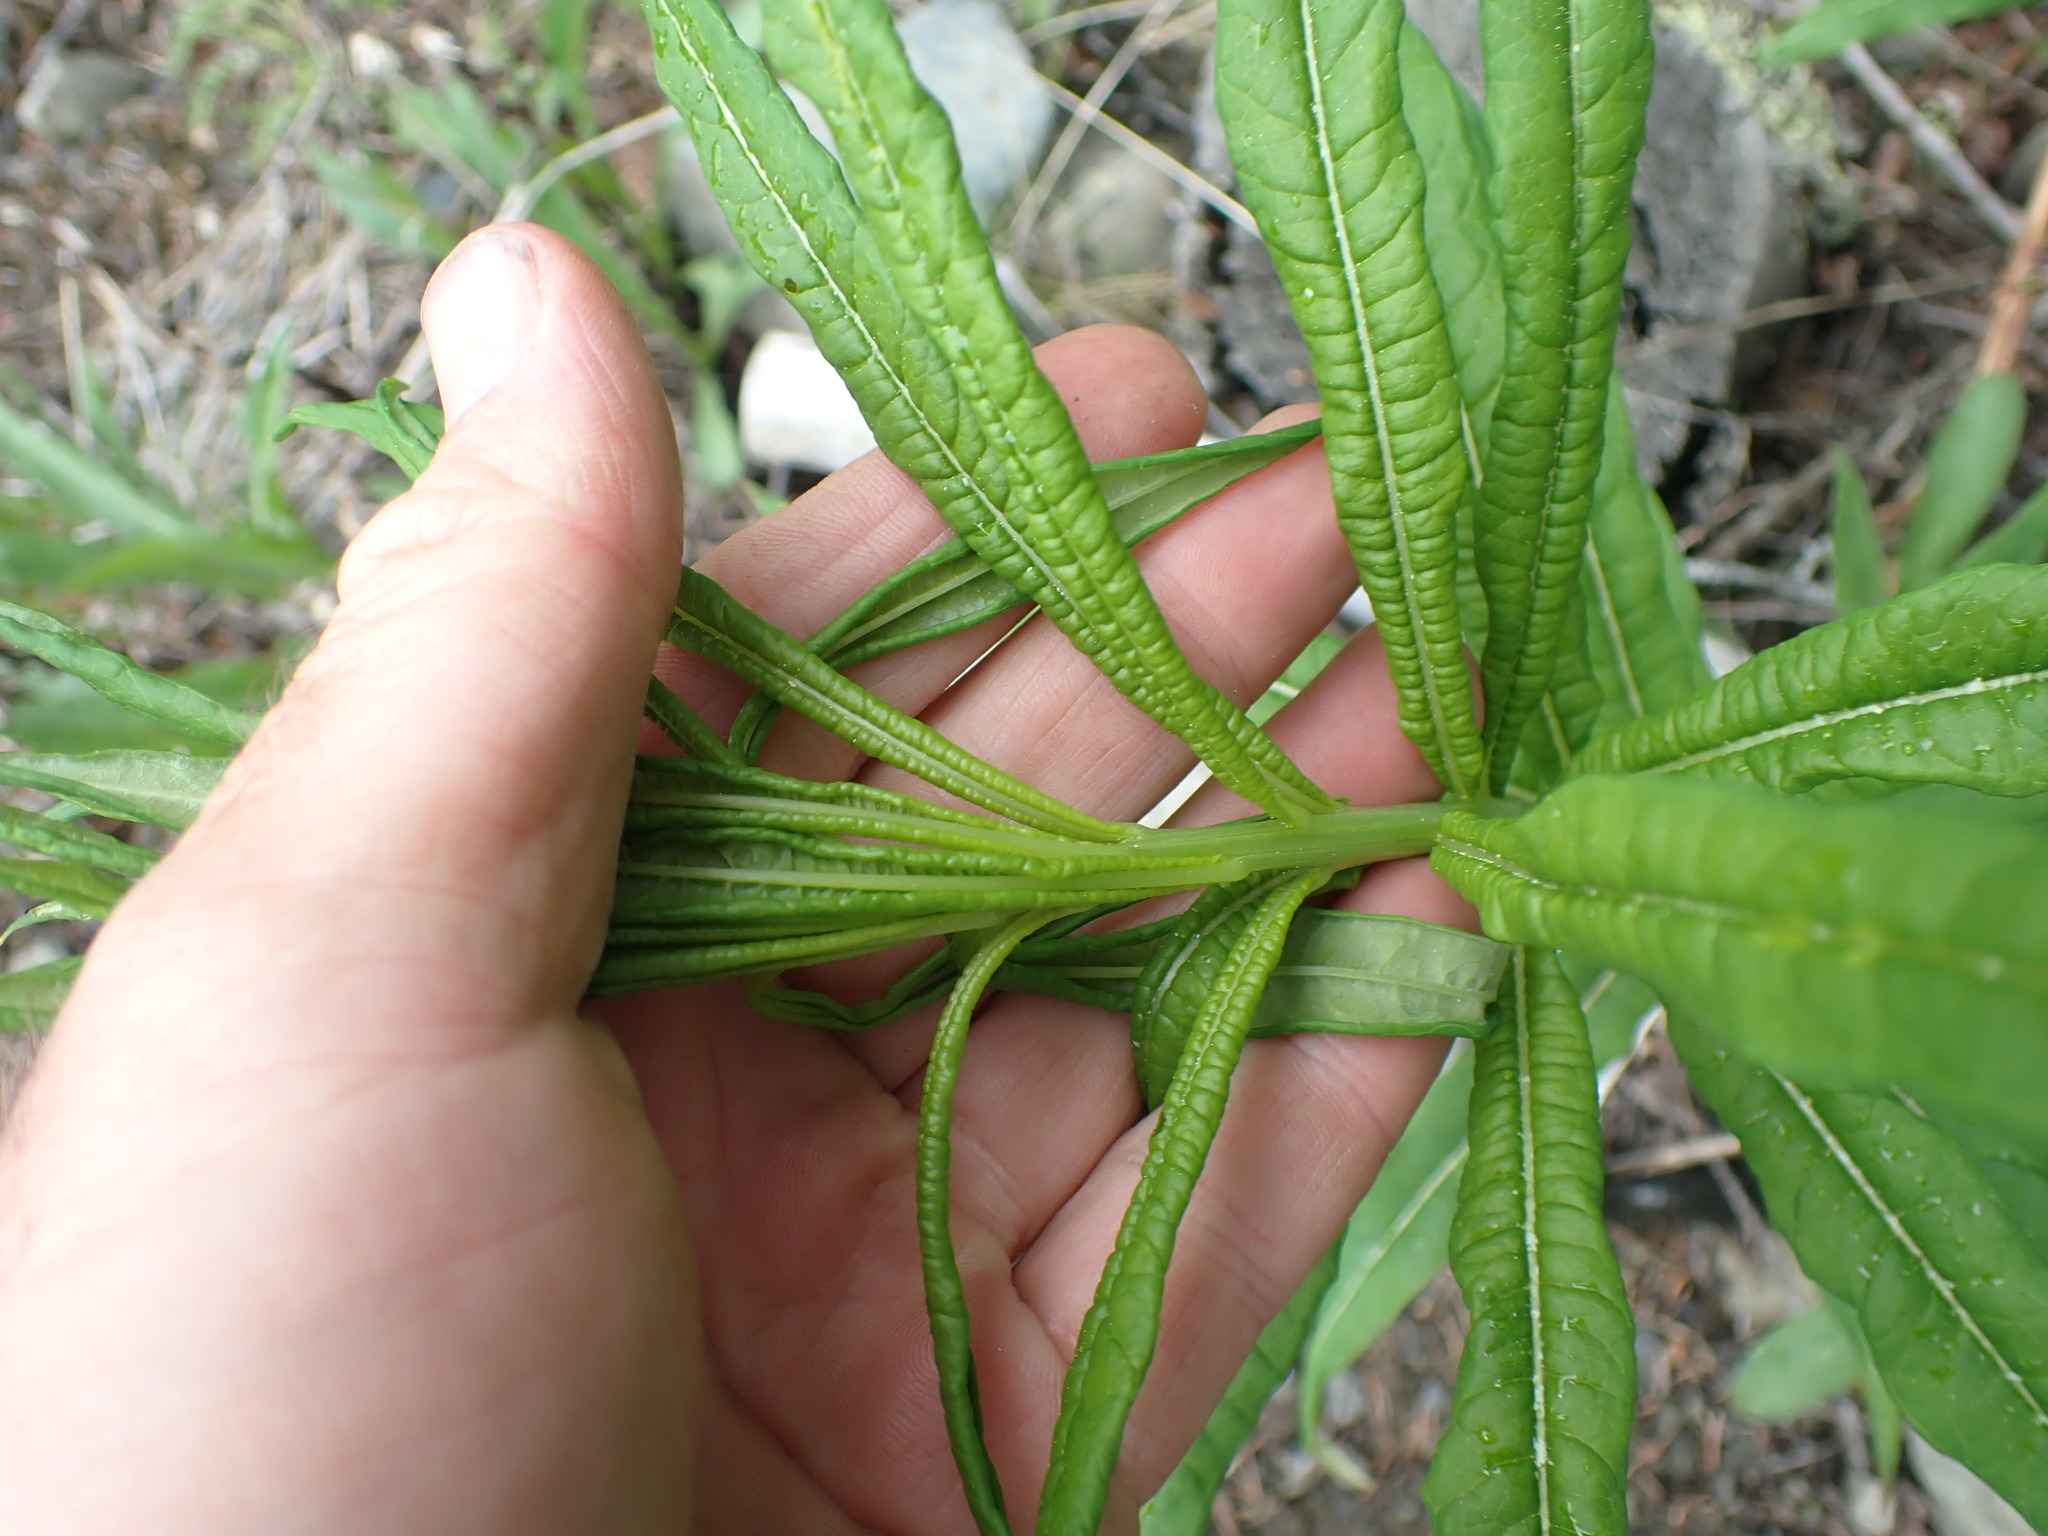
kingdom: Plantae
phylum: Tracheophyta
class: Magnoliopsida
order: Myrtales
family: Onagraceae
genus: Chamaenerion
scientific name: Chamaenerion angustifolium
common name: Fireweed
